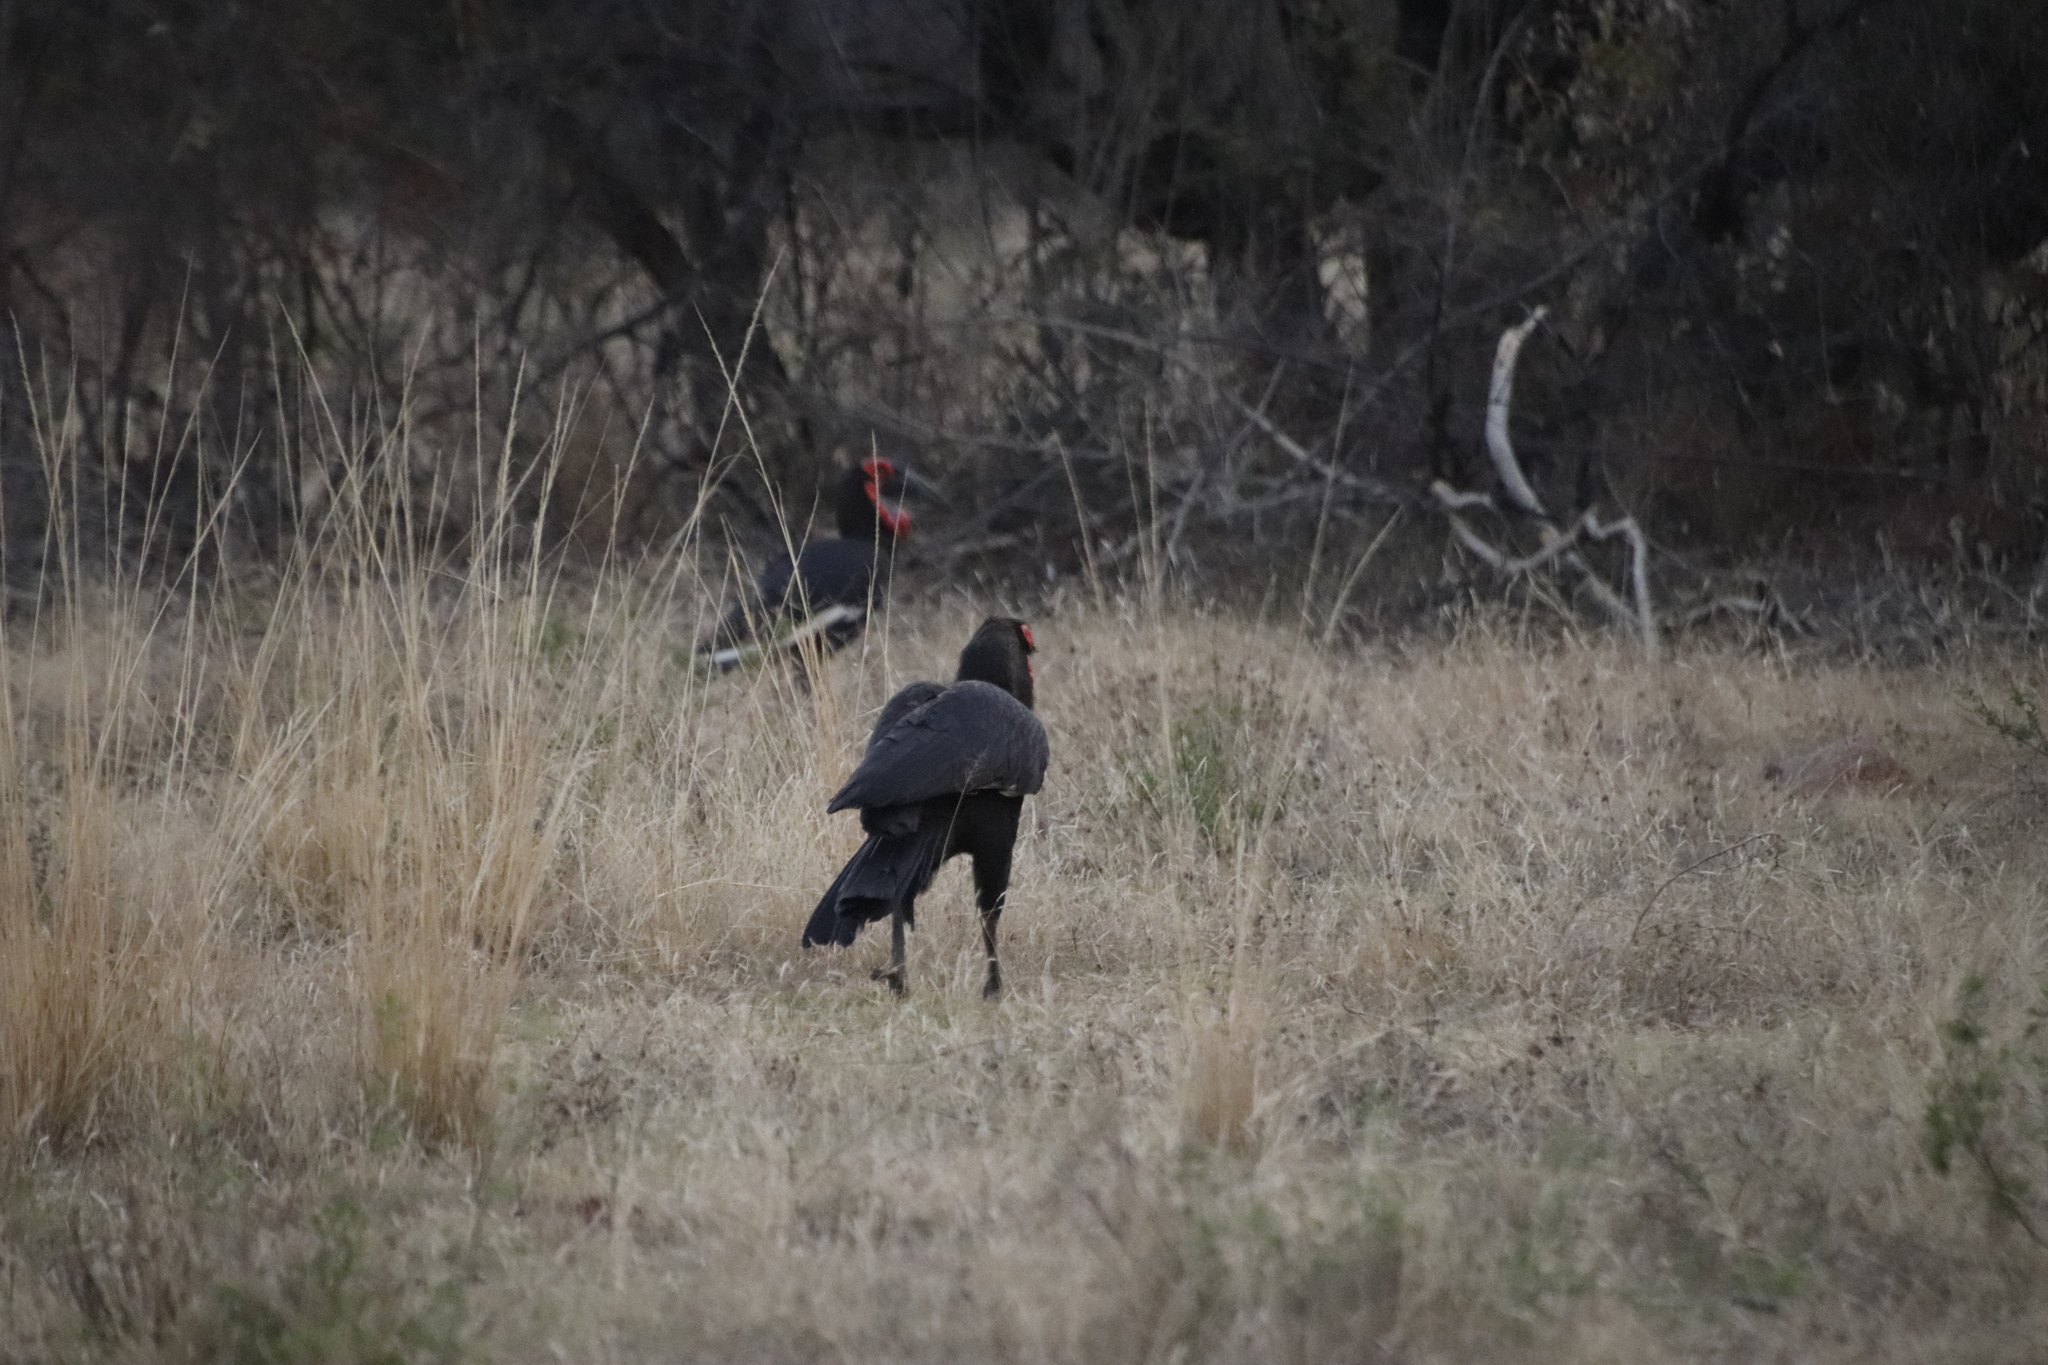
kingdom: Animalia
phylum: Chordata
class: Aves
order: Bucerotiformes
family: Bucorvidae
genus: Bucorvus
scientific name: Bucorvus leadbeateri
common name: Southern ground-hornbill
